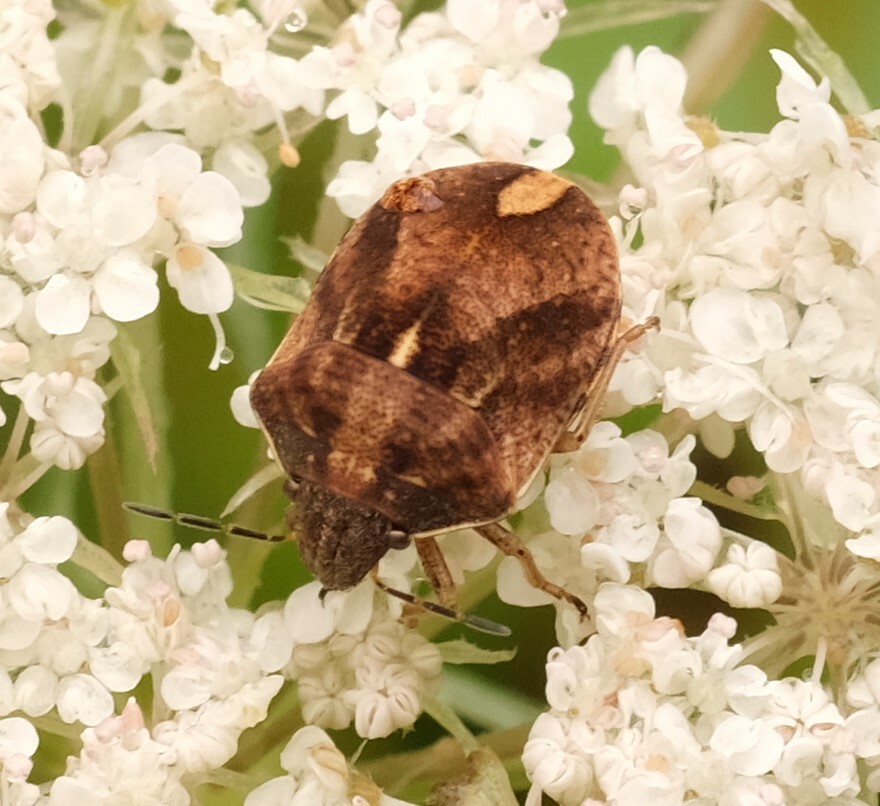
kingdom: Animalia
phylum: Arthropoda
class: Insecta
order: Hemiptera
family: Scutelleridae
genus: Homaemus
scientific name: Homaemus aeneifrons
